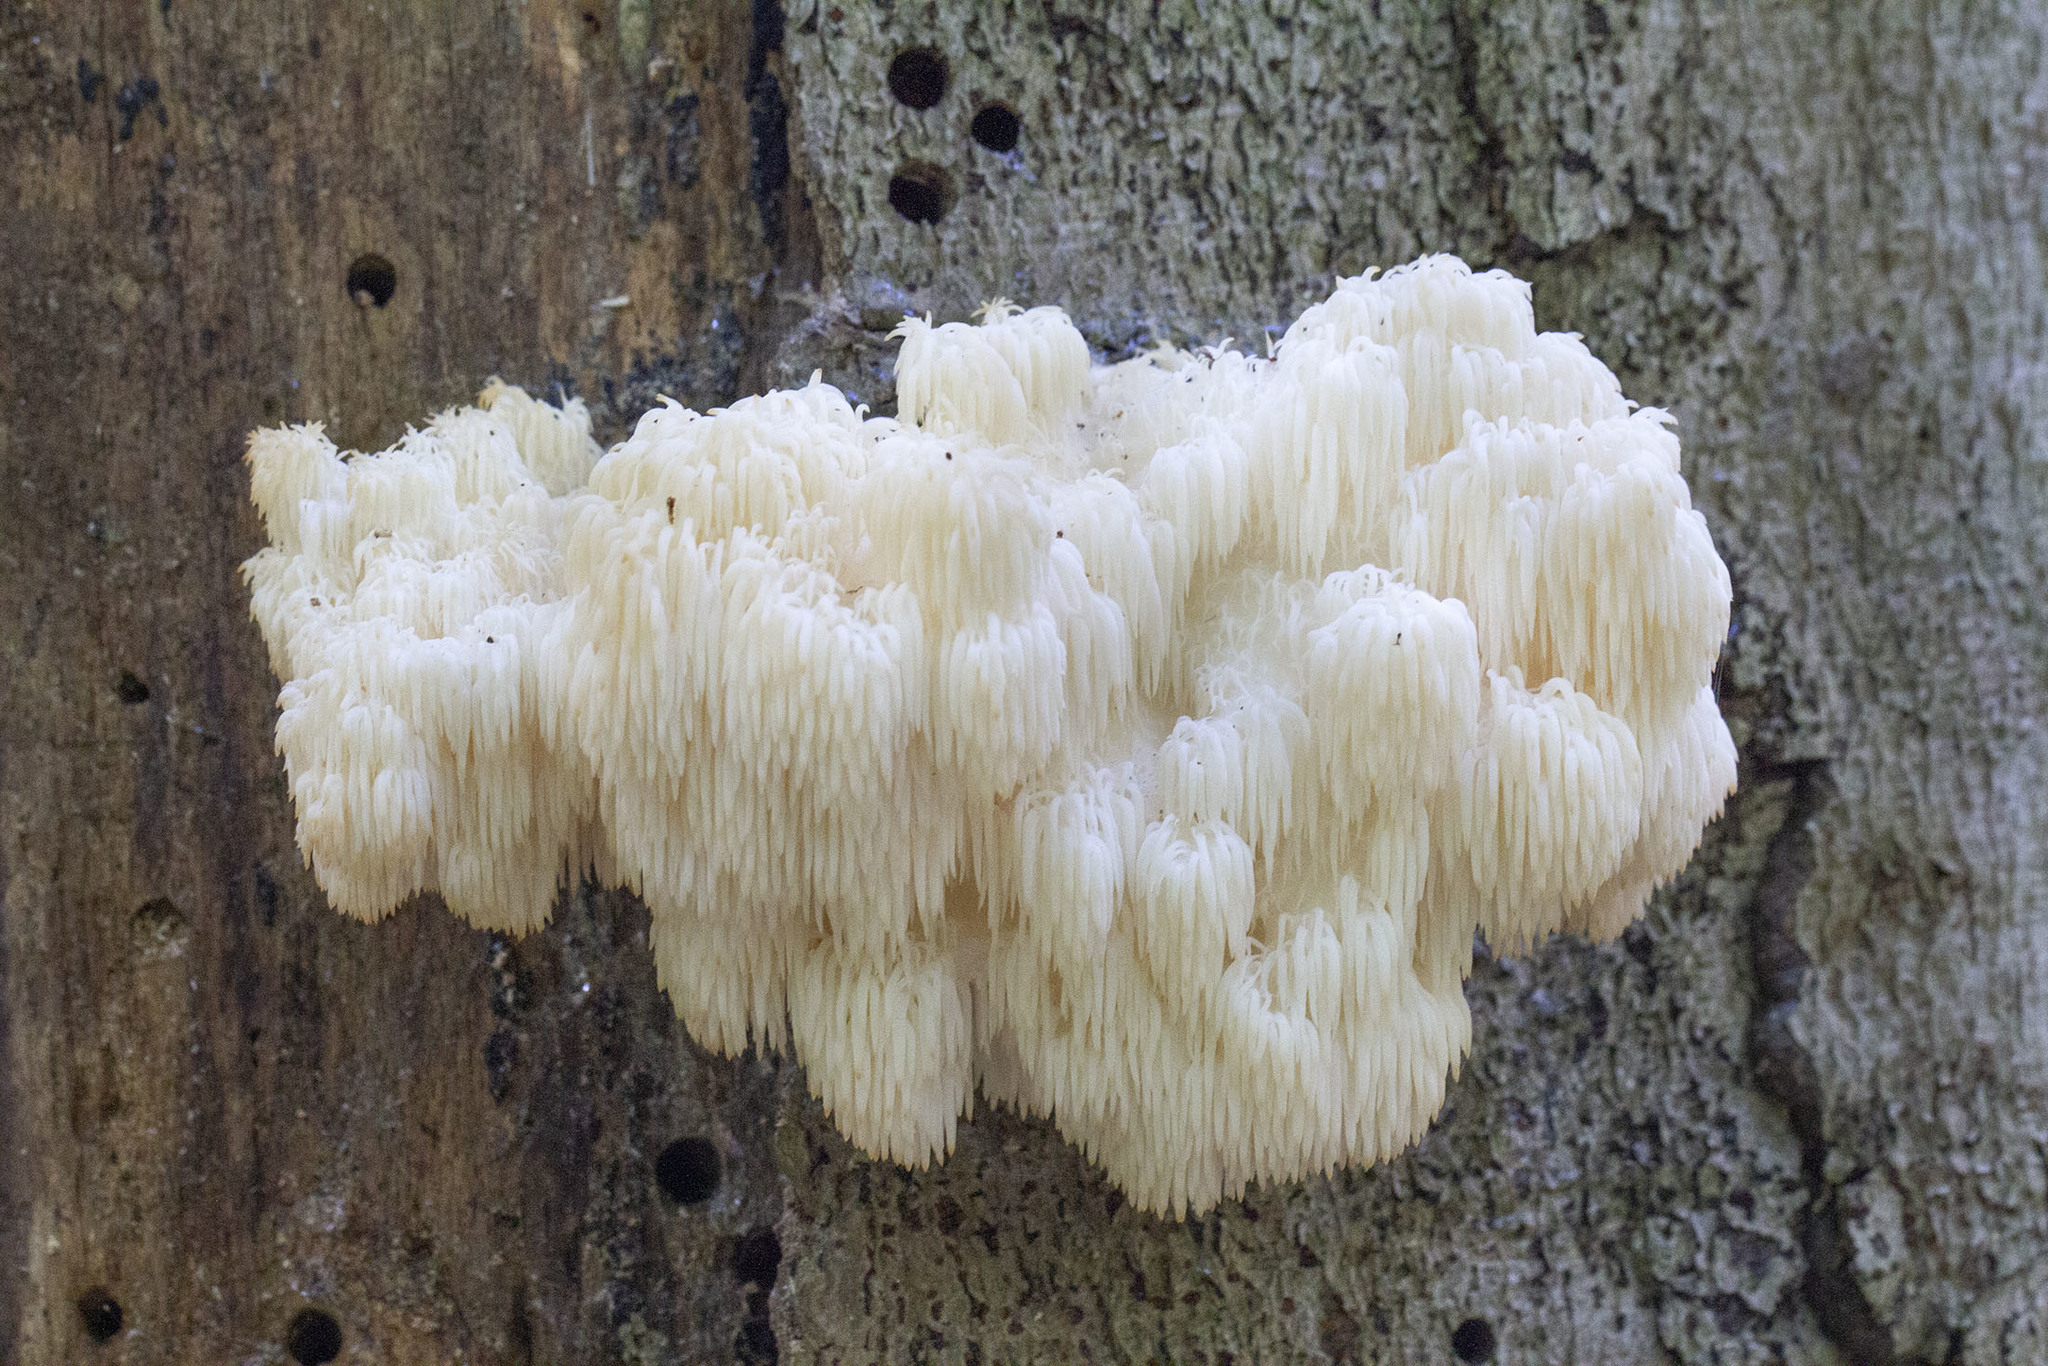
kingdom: Fungi
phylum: Basidiomycota
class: Agaricomycetes
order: Russulales
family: Hericiaceae
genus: Hericium
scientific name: Hericium americanum
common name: Bear's head tooth
